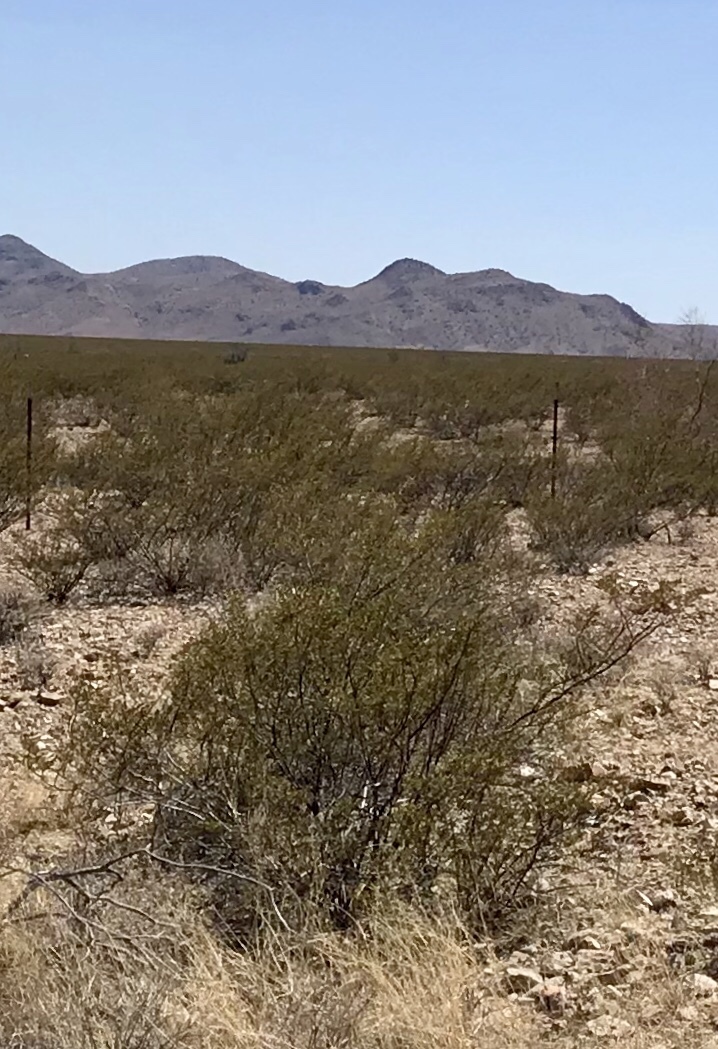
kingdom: Plantae
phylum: Tracheophyta
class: Magnoliopsida
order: Zygophyllales
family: Zygophyllaceae
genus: Larrea
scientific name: Larrea tridentata
